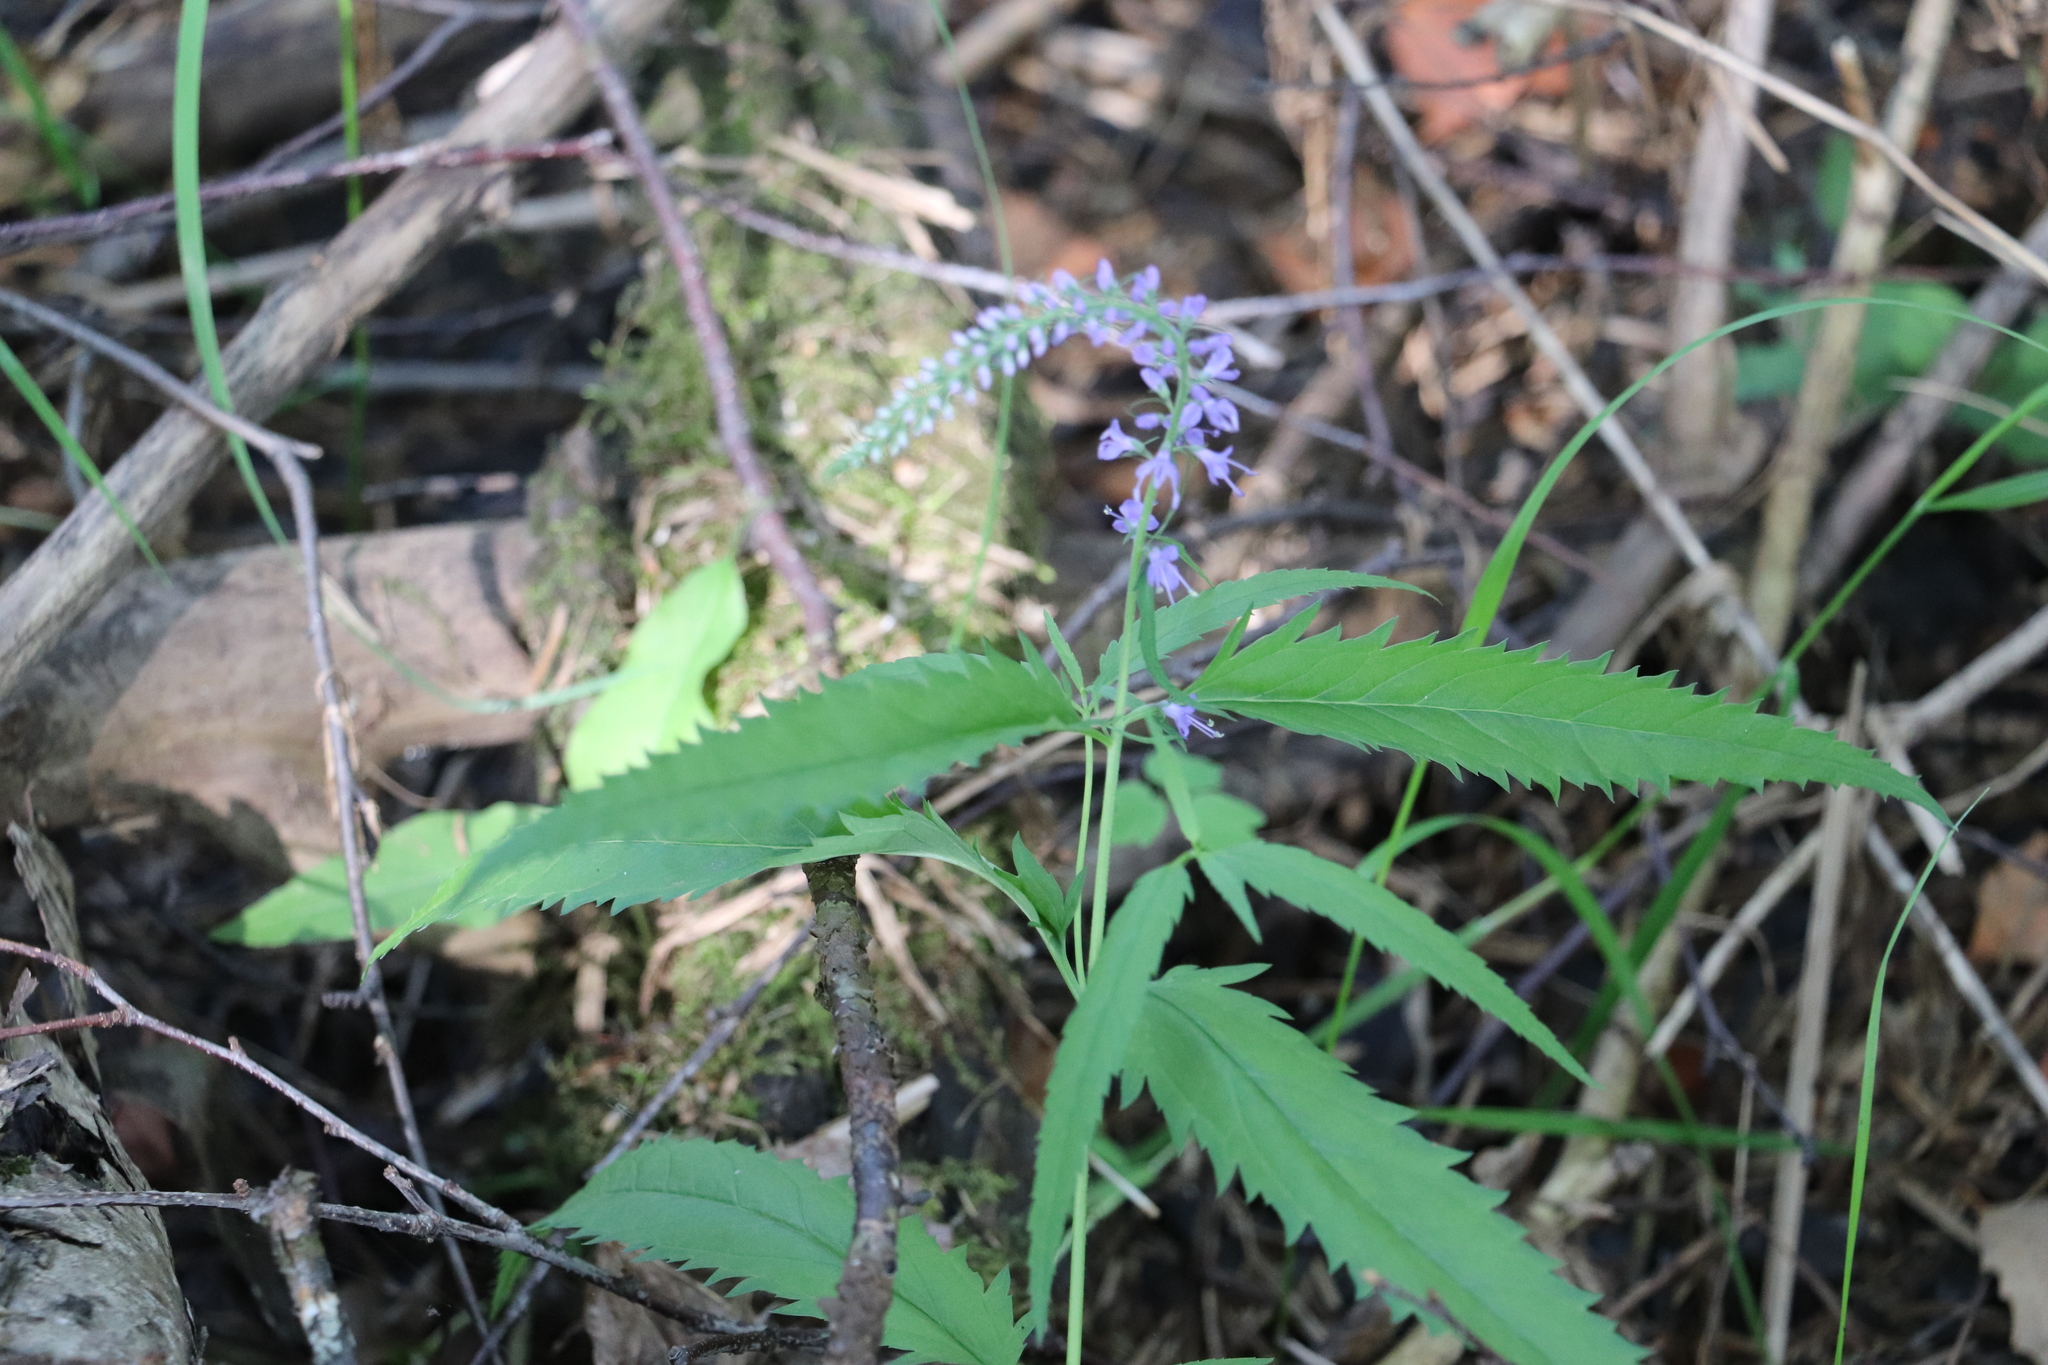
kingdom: Plantae
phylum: Tracheophyta
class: Magnoliopsida
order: Lamiales
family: Plantaginaceae
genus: Veronica
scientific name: Veronica longifolia
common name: Garden speedwell
